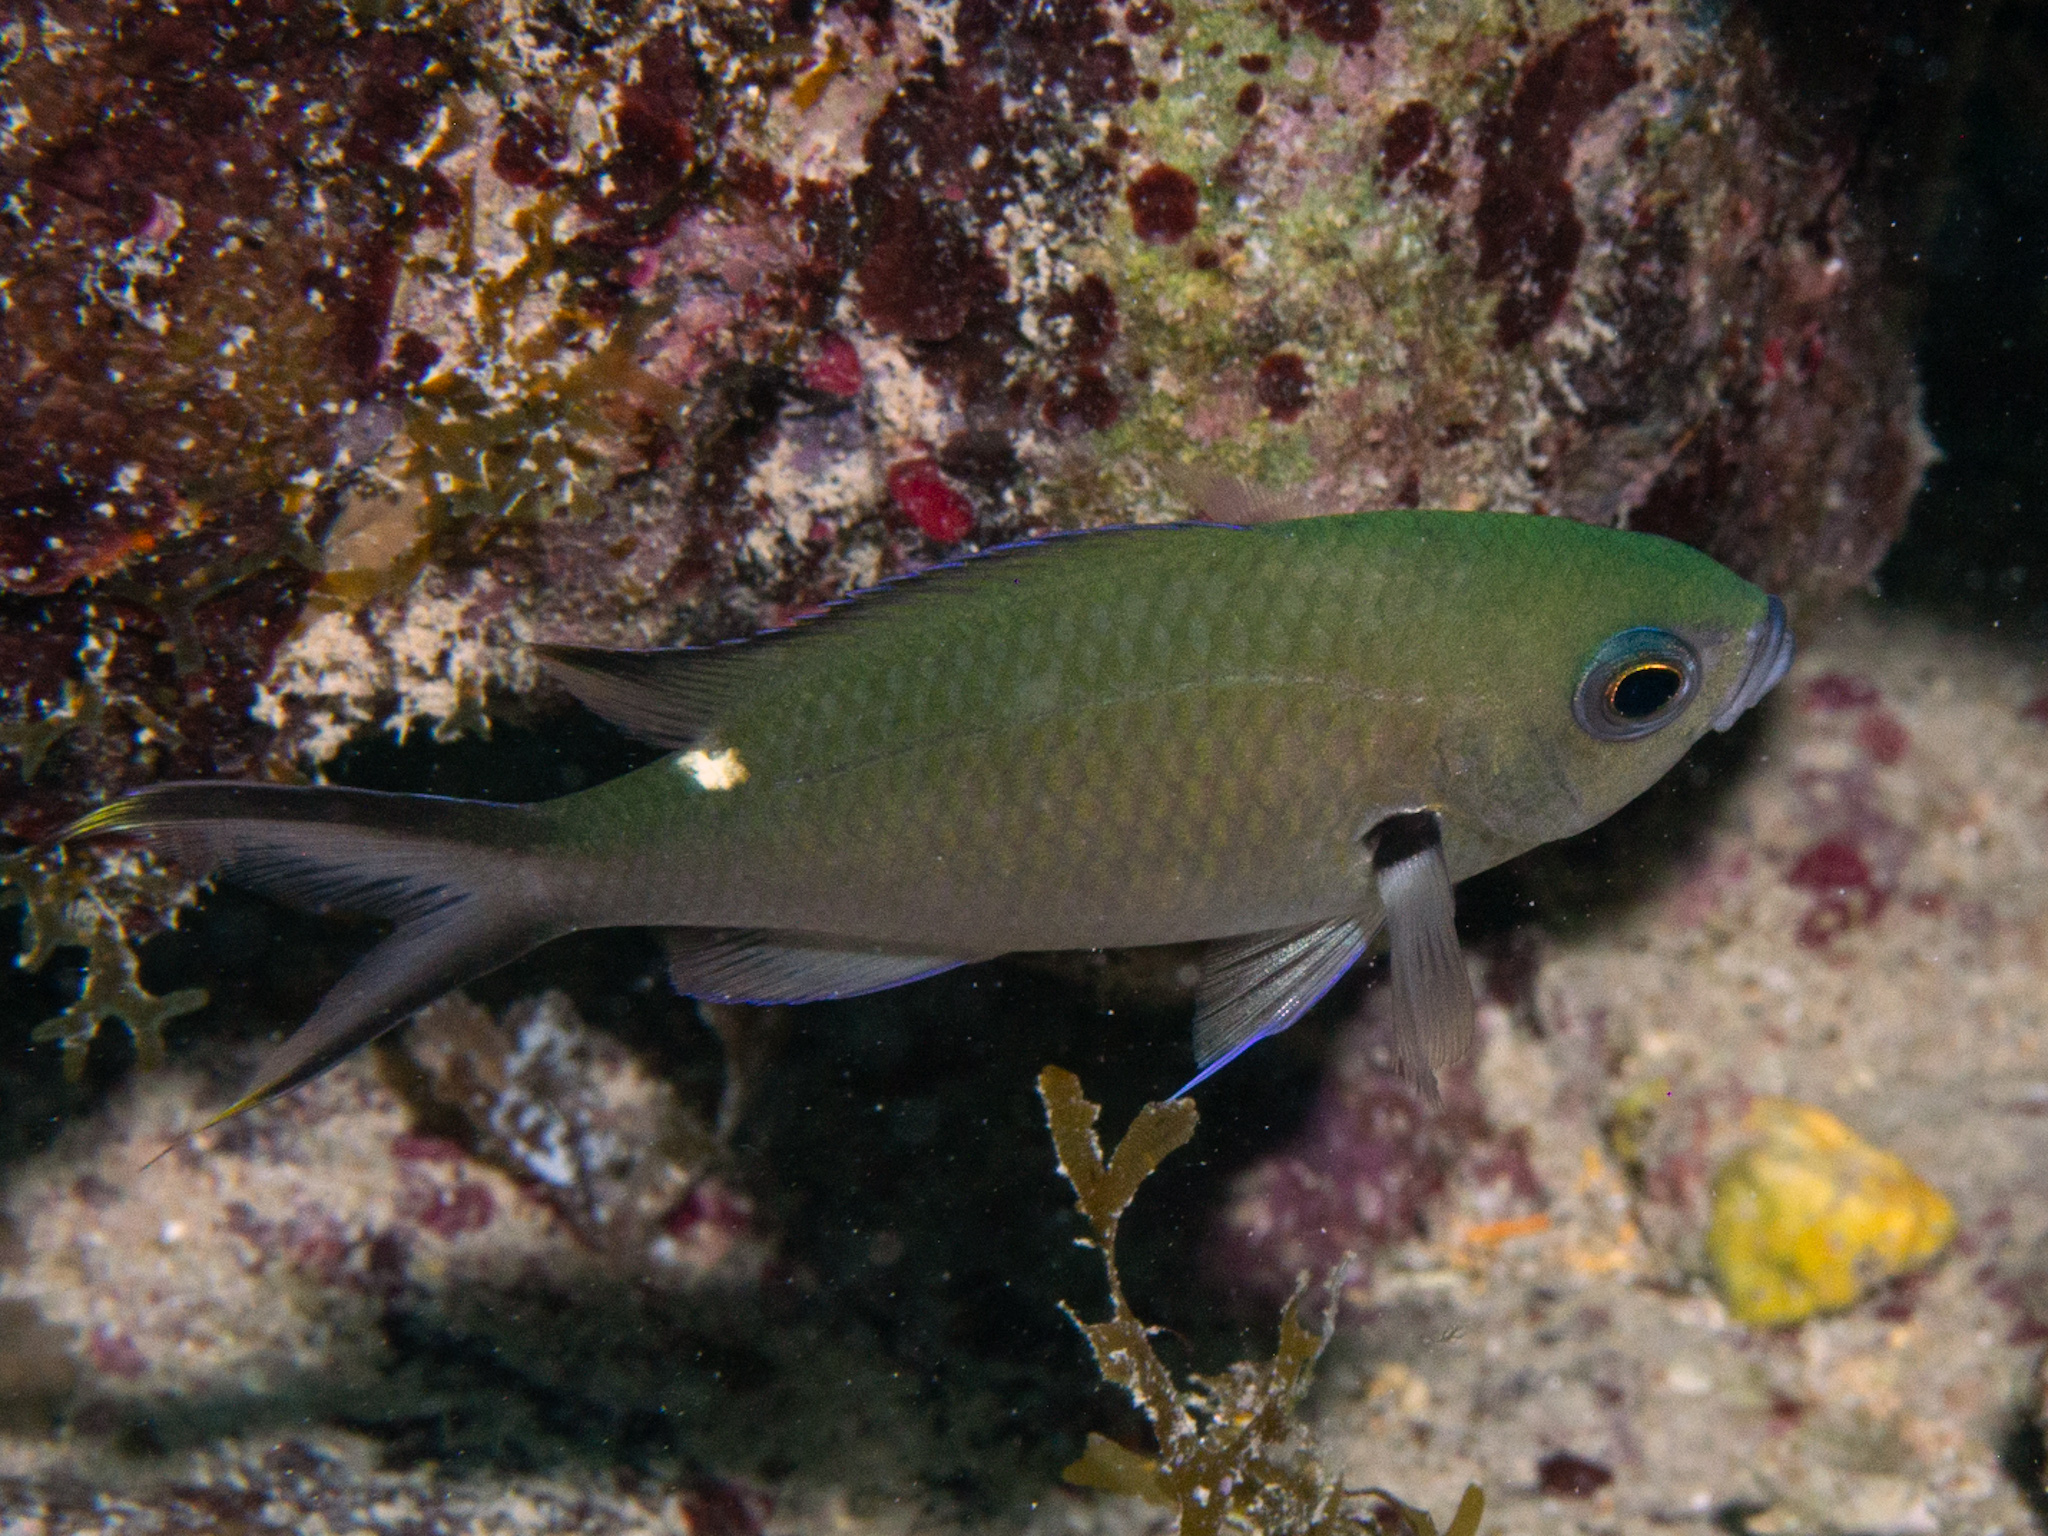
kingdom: Animalia
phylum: Chordata
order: Perciformes
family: Pomacentridae
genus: Chromis
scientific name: Chromis multilineata
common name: Brown chromis
